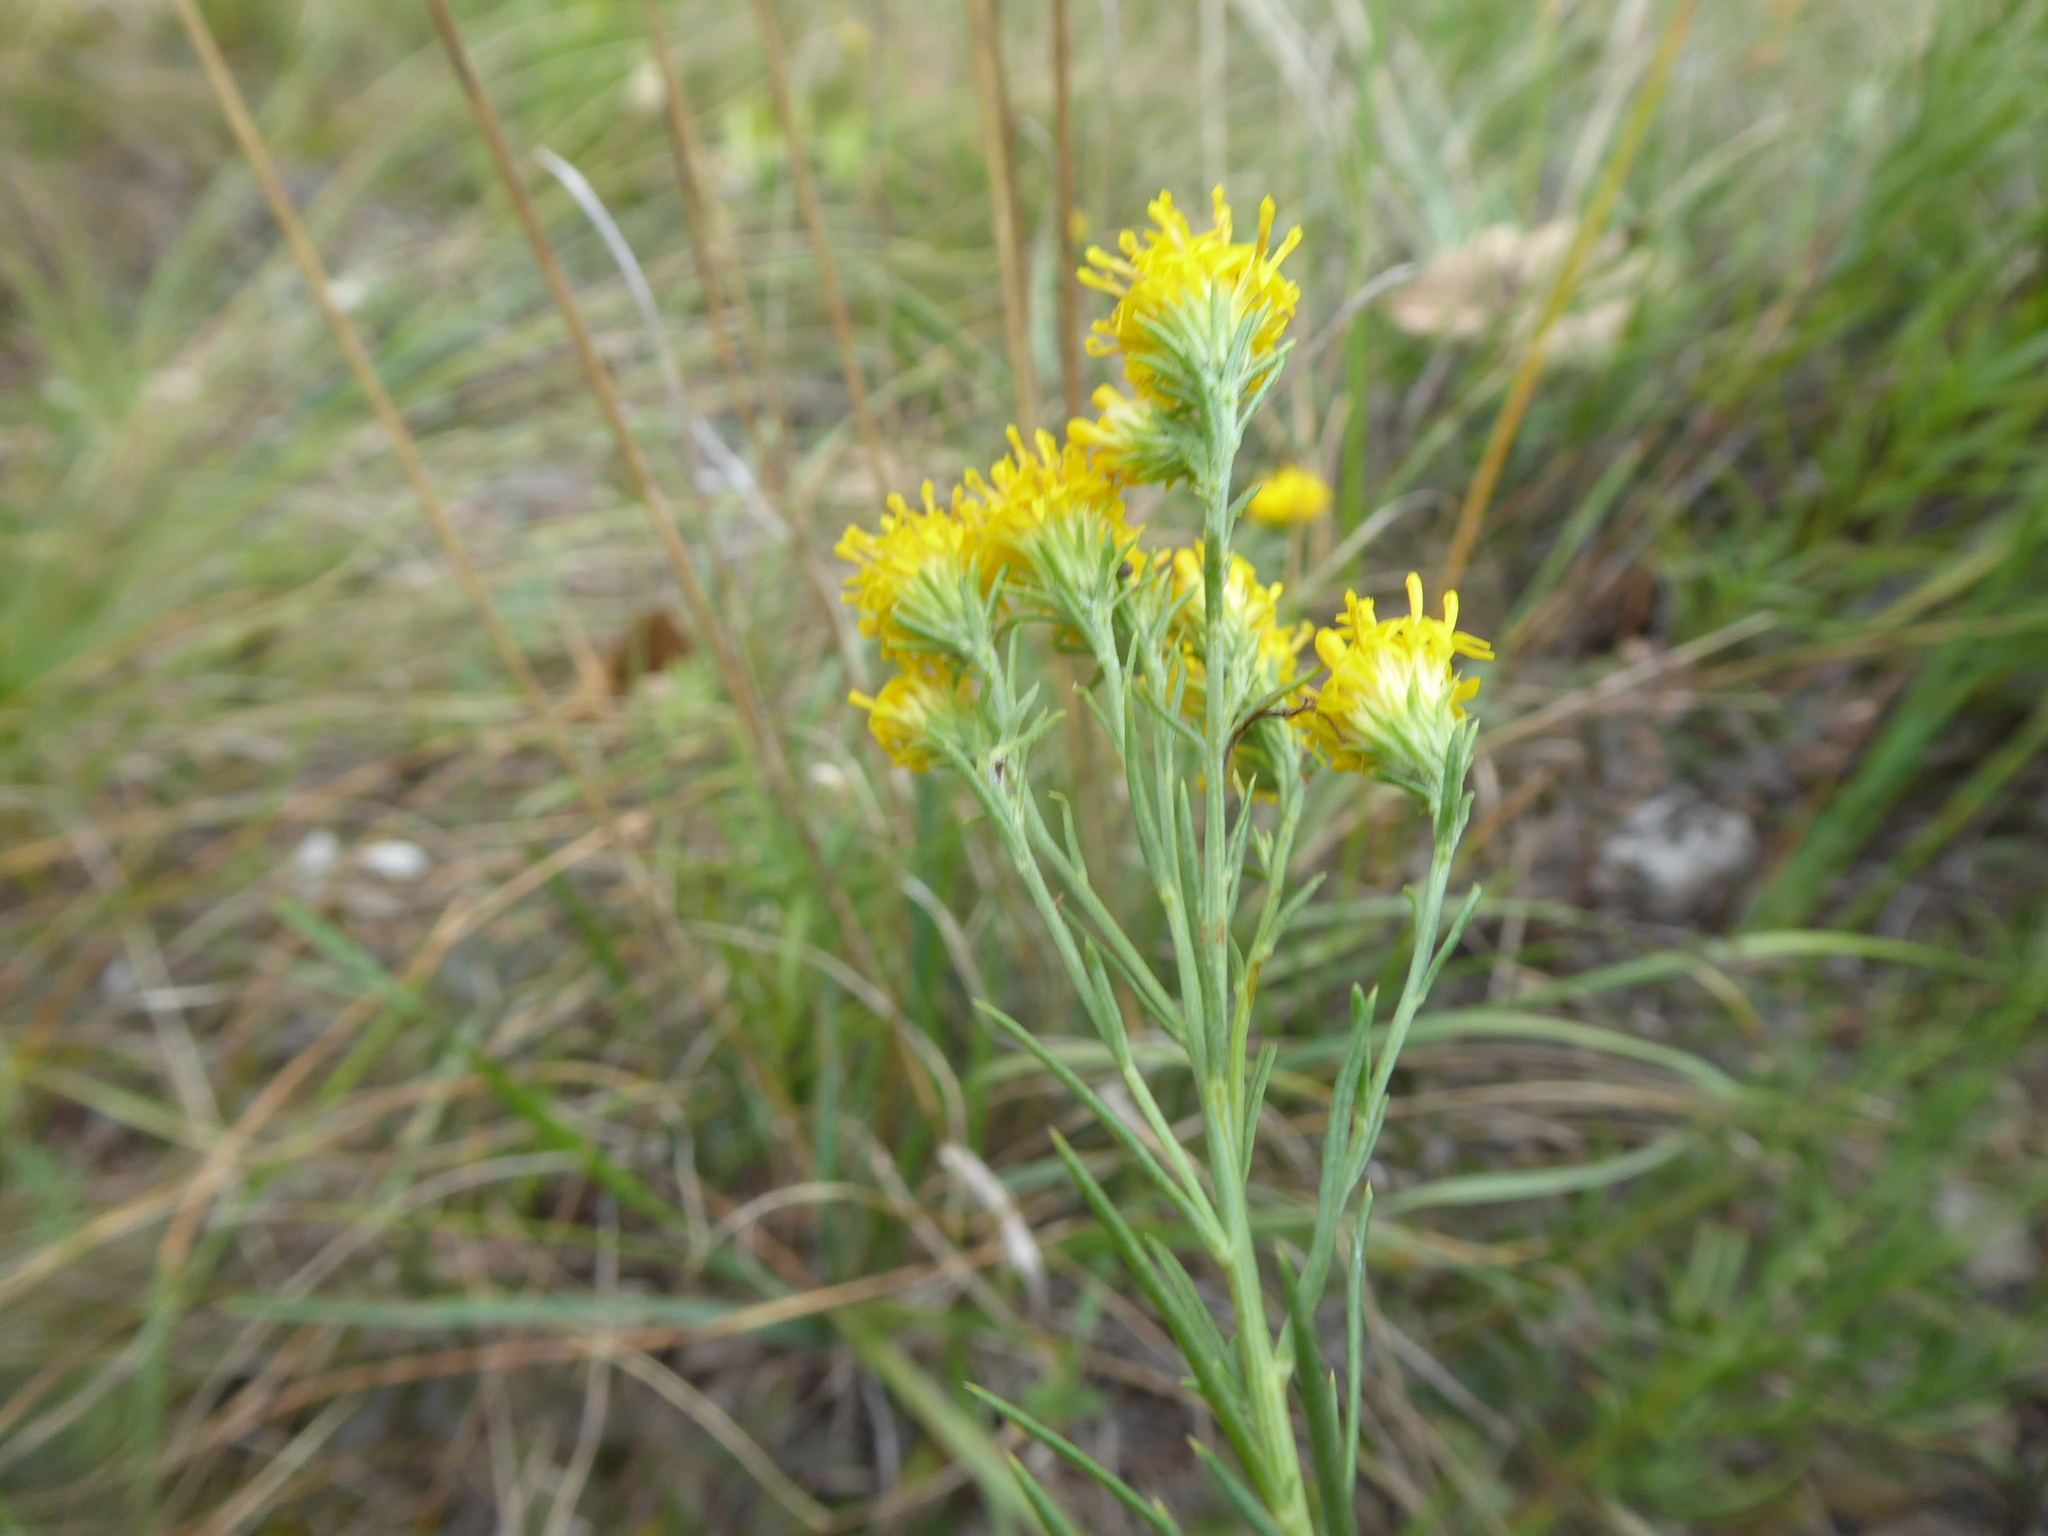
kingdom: Plantae
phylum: Tracheophyta
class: Magnoliopsida
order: Asterales
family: Asteraceae
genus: Galatella
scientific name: Galatella linosyris
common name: Goldilocks aster
